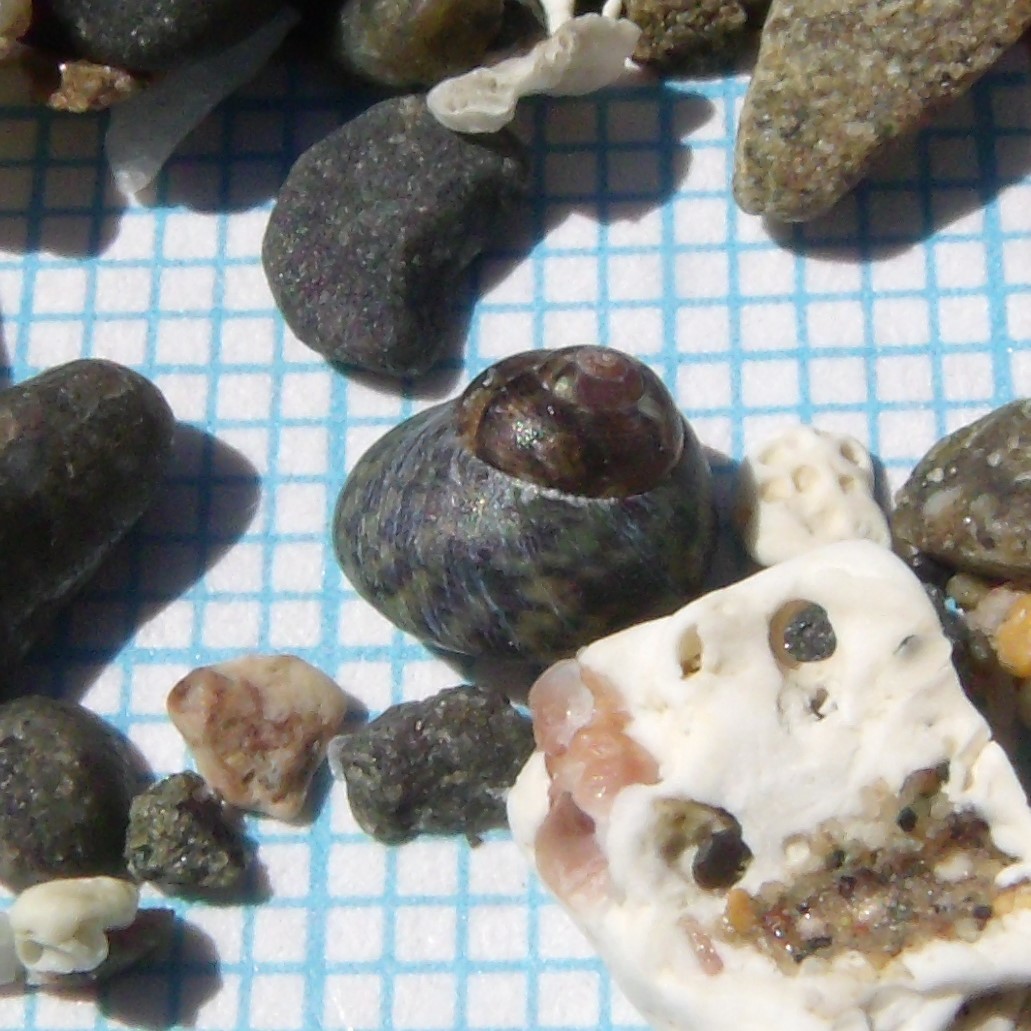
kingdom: Animalia
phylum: Mollusca
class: Gastropoda
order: Trochida
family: Trochidae
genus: Micrelenchus
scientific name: Micrelenchus tessellatus
